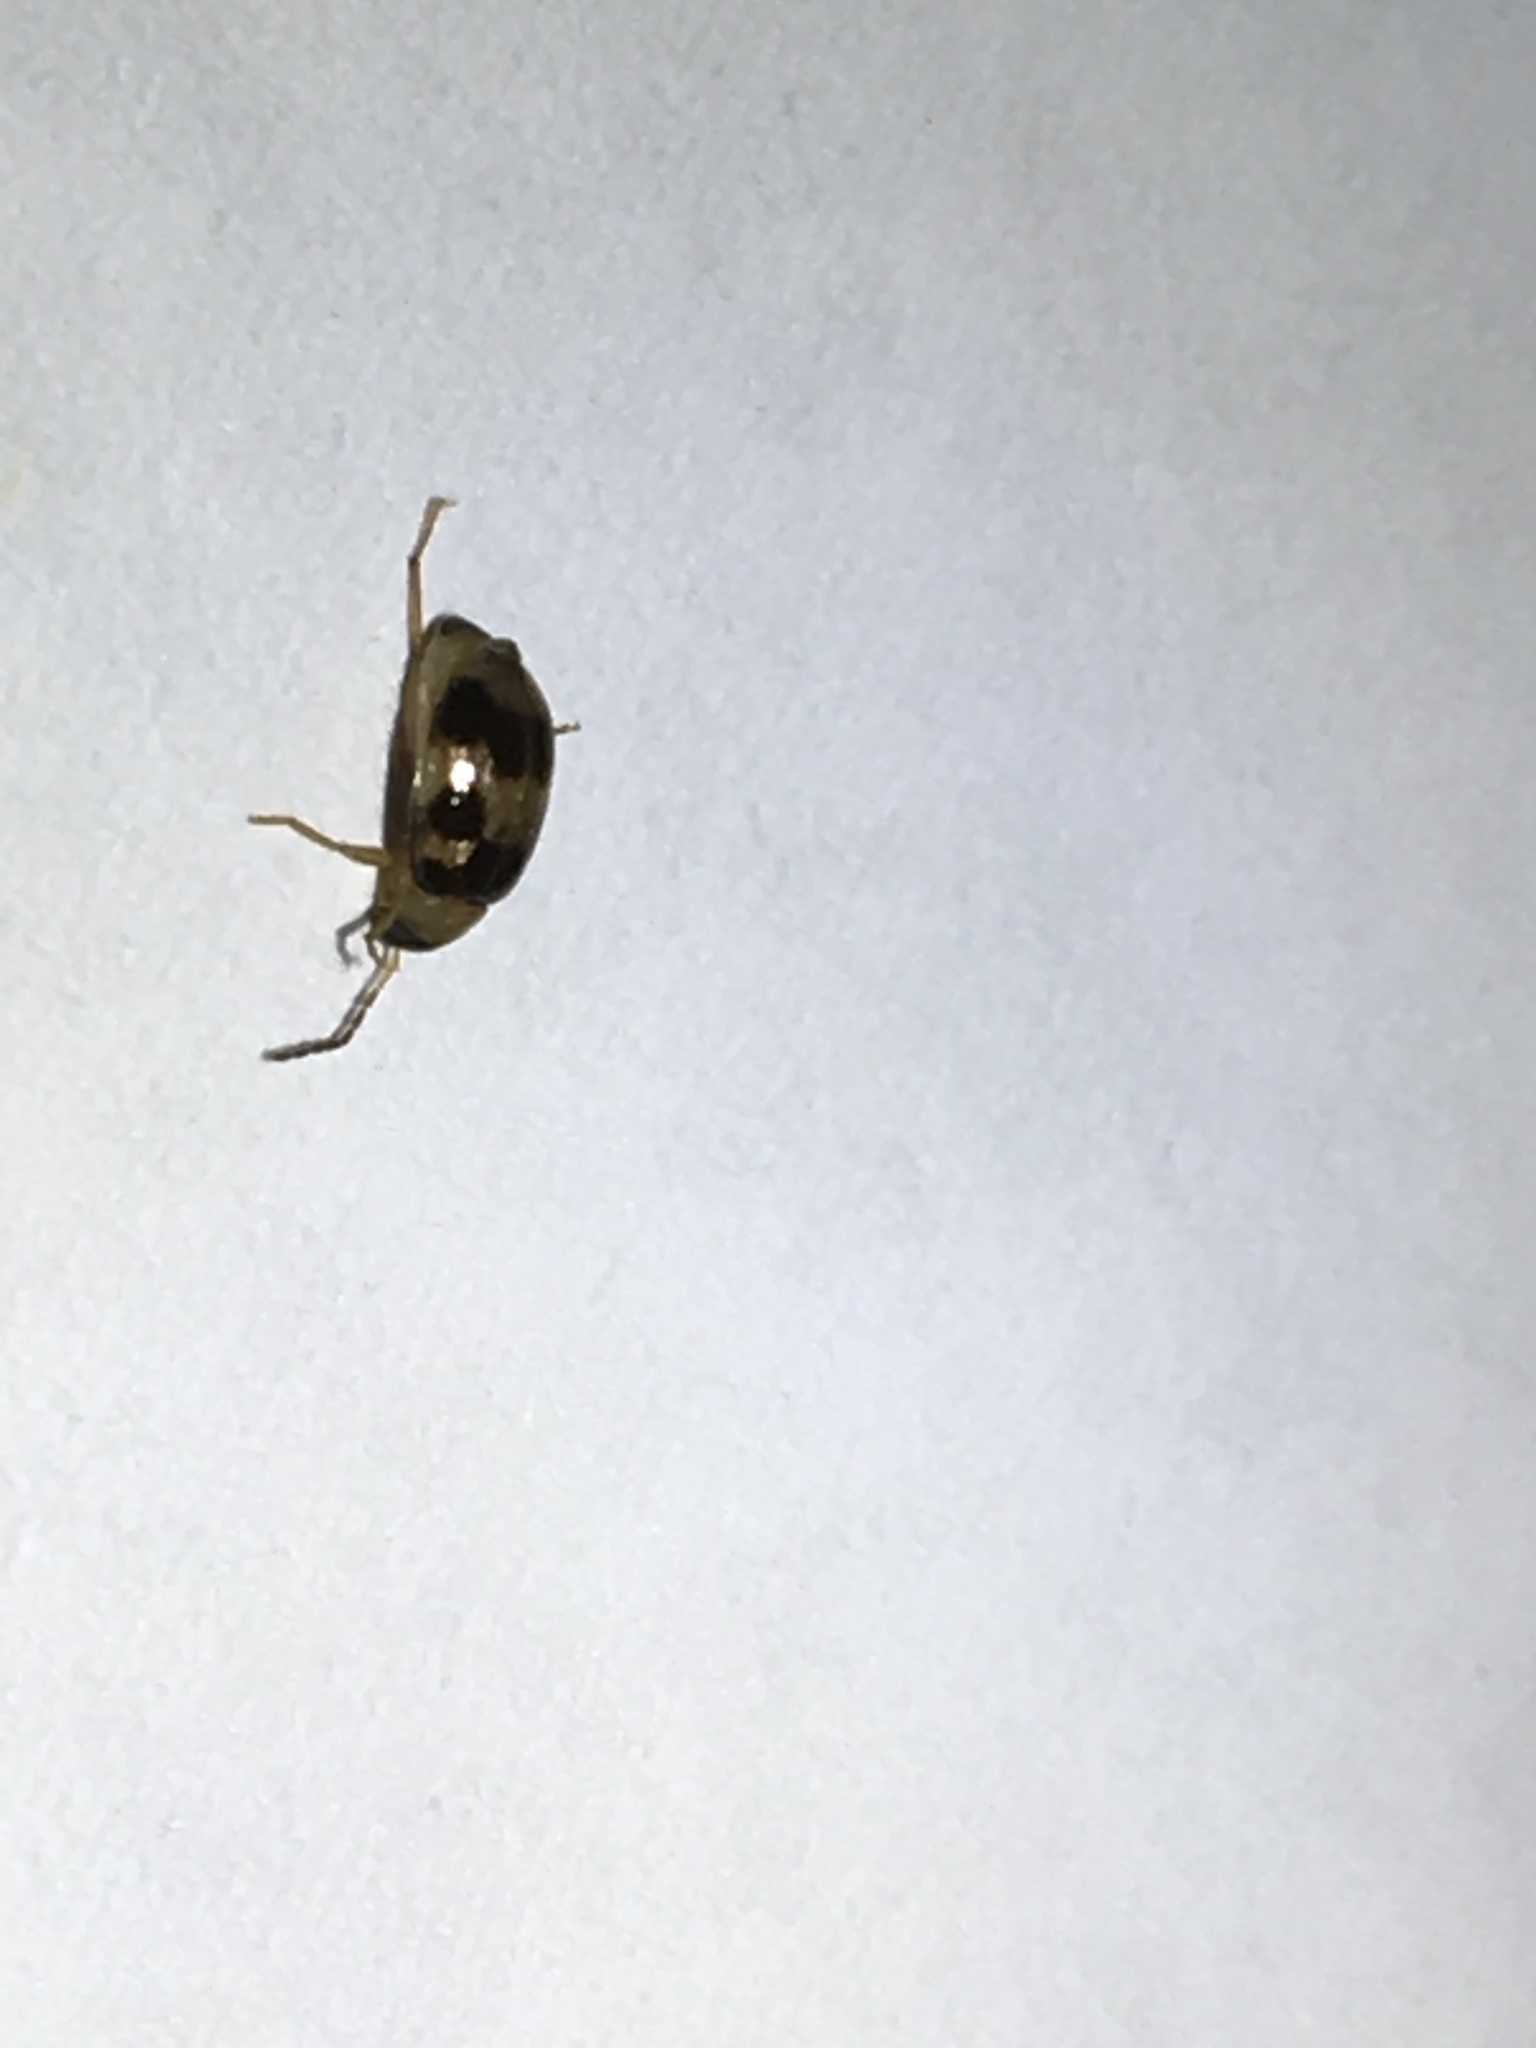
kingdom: Animalia
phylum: Arthropoda
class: Insecta
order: Coleoptera
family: Chrysomelidae
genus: Afromaculepta
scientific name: Afromaculepta decemmaculata
